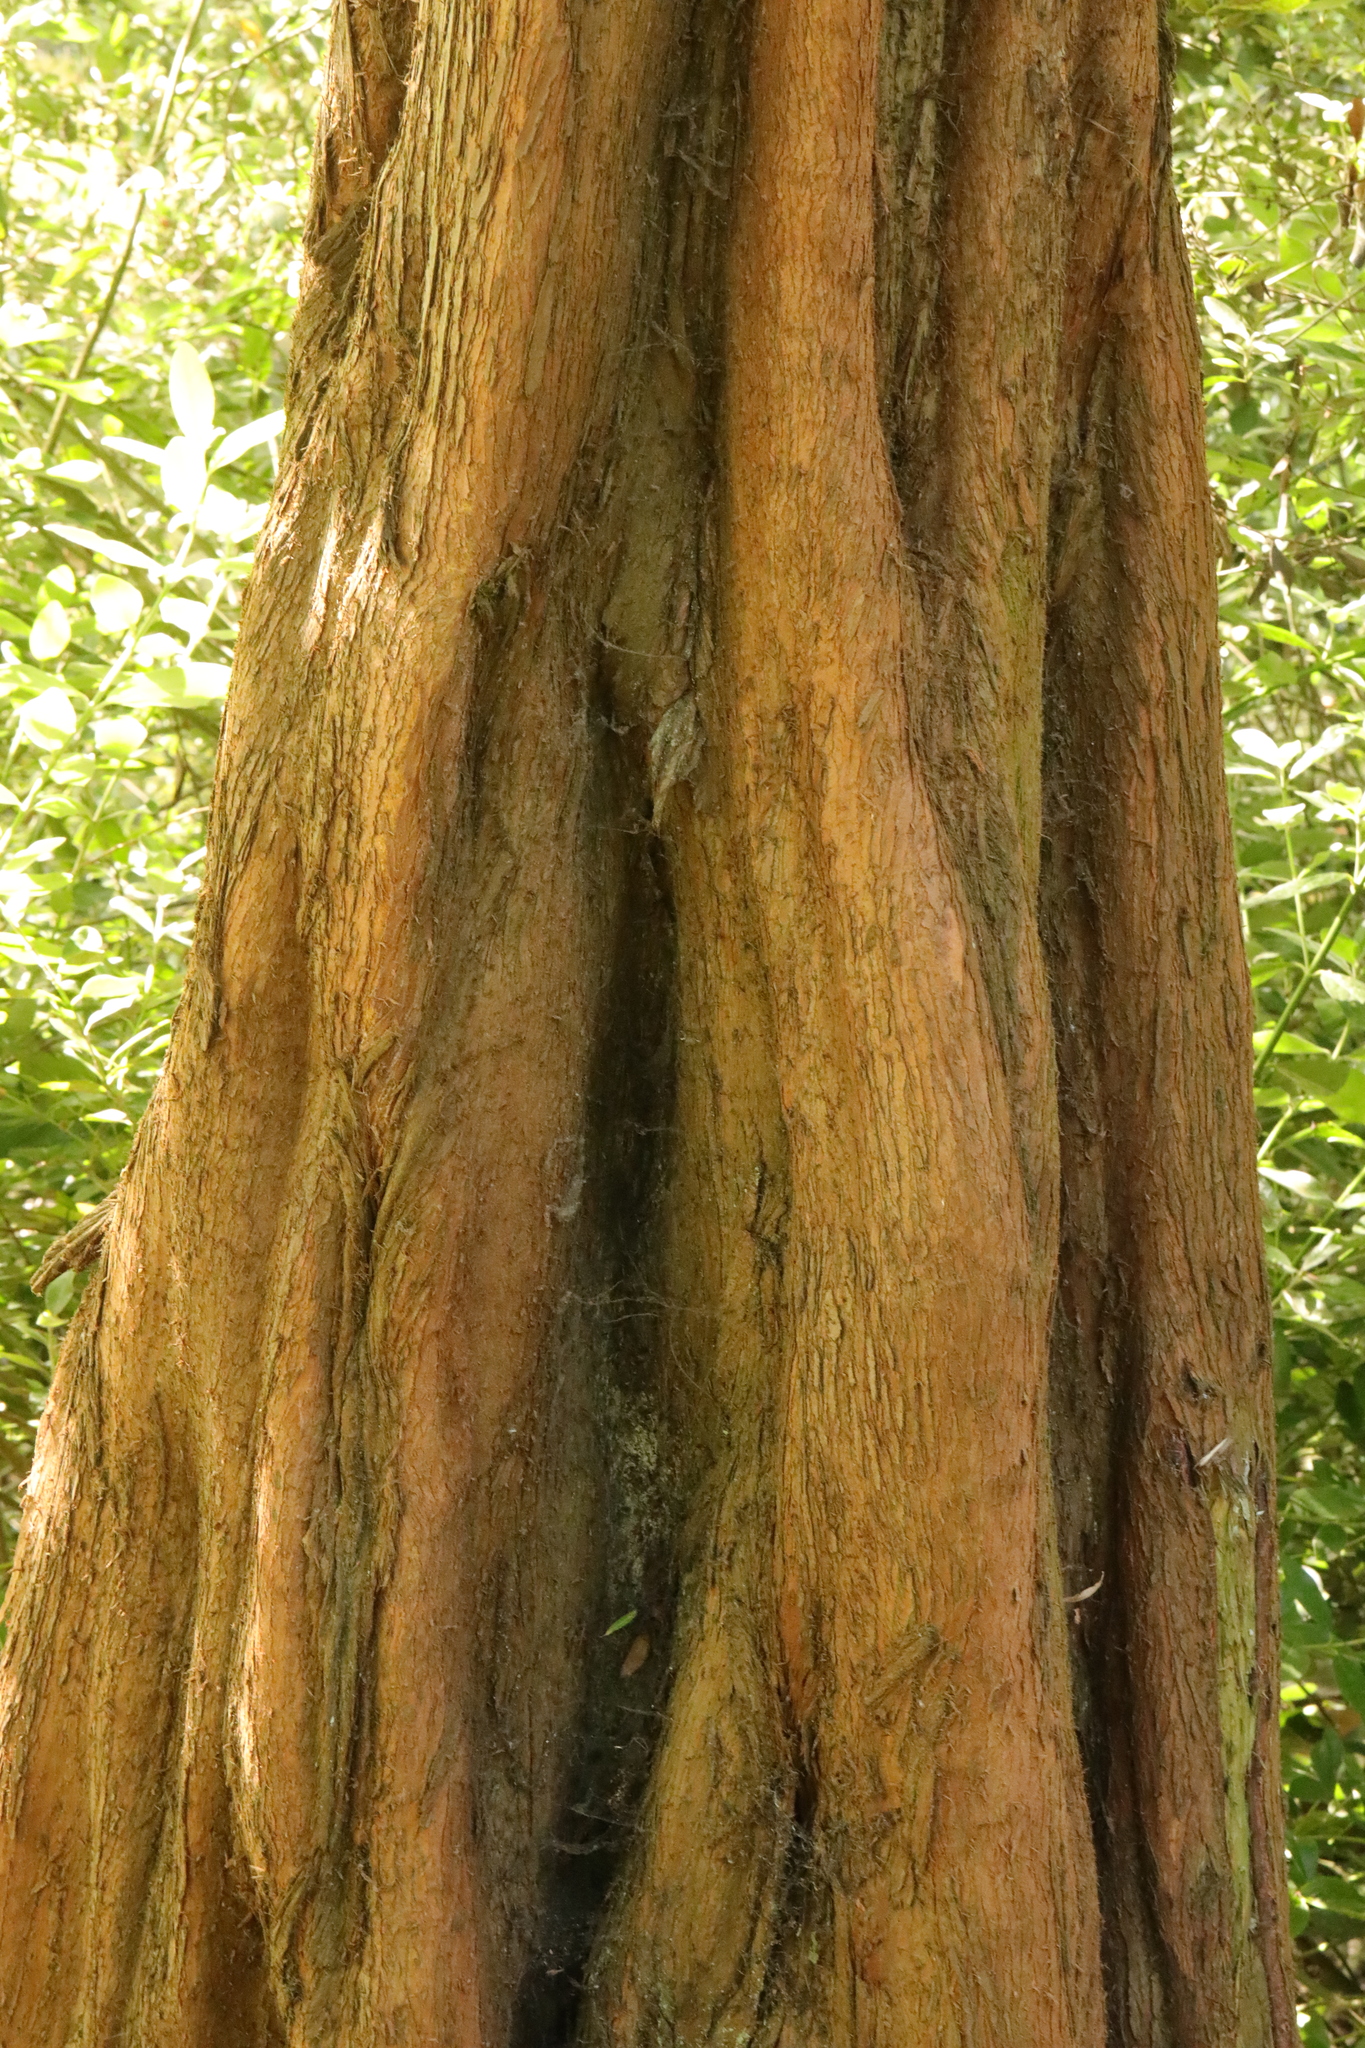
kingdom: Plantae
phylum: Tracheophyta
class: Pinopsida
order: Pinales
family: Cupressaceae
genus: Metasequoia
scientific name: Metasequoia glyptostroboides
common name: Dawn redwood
